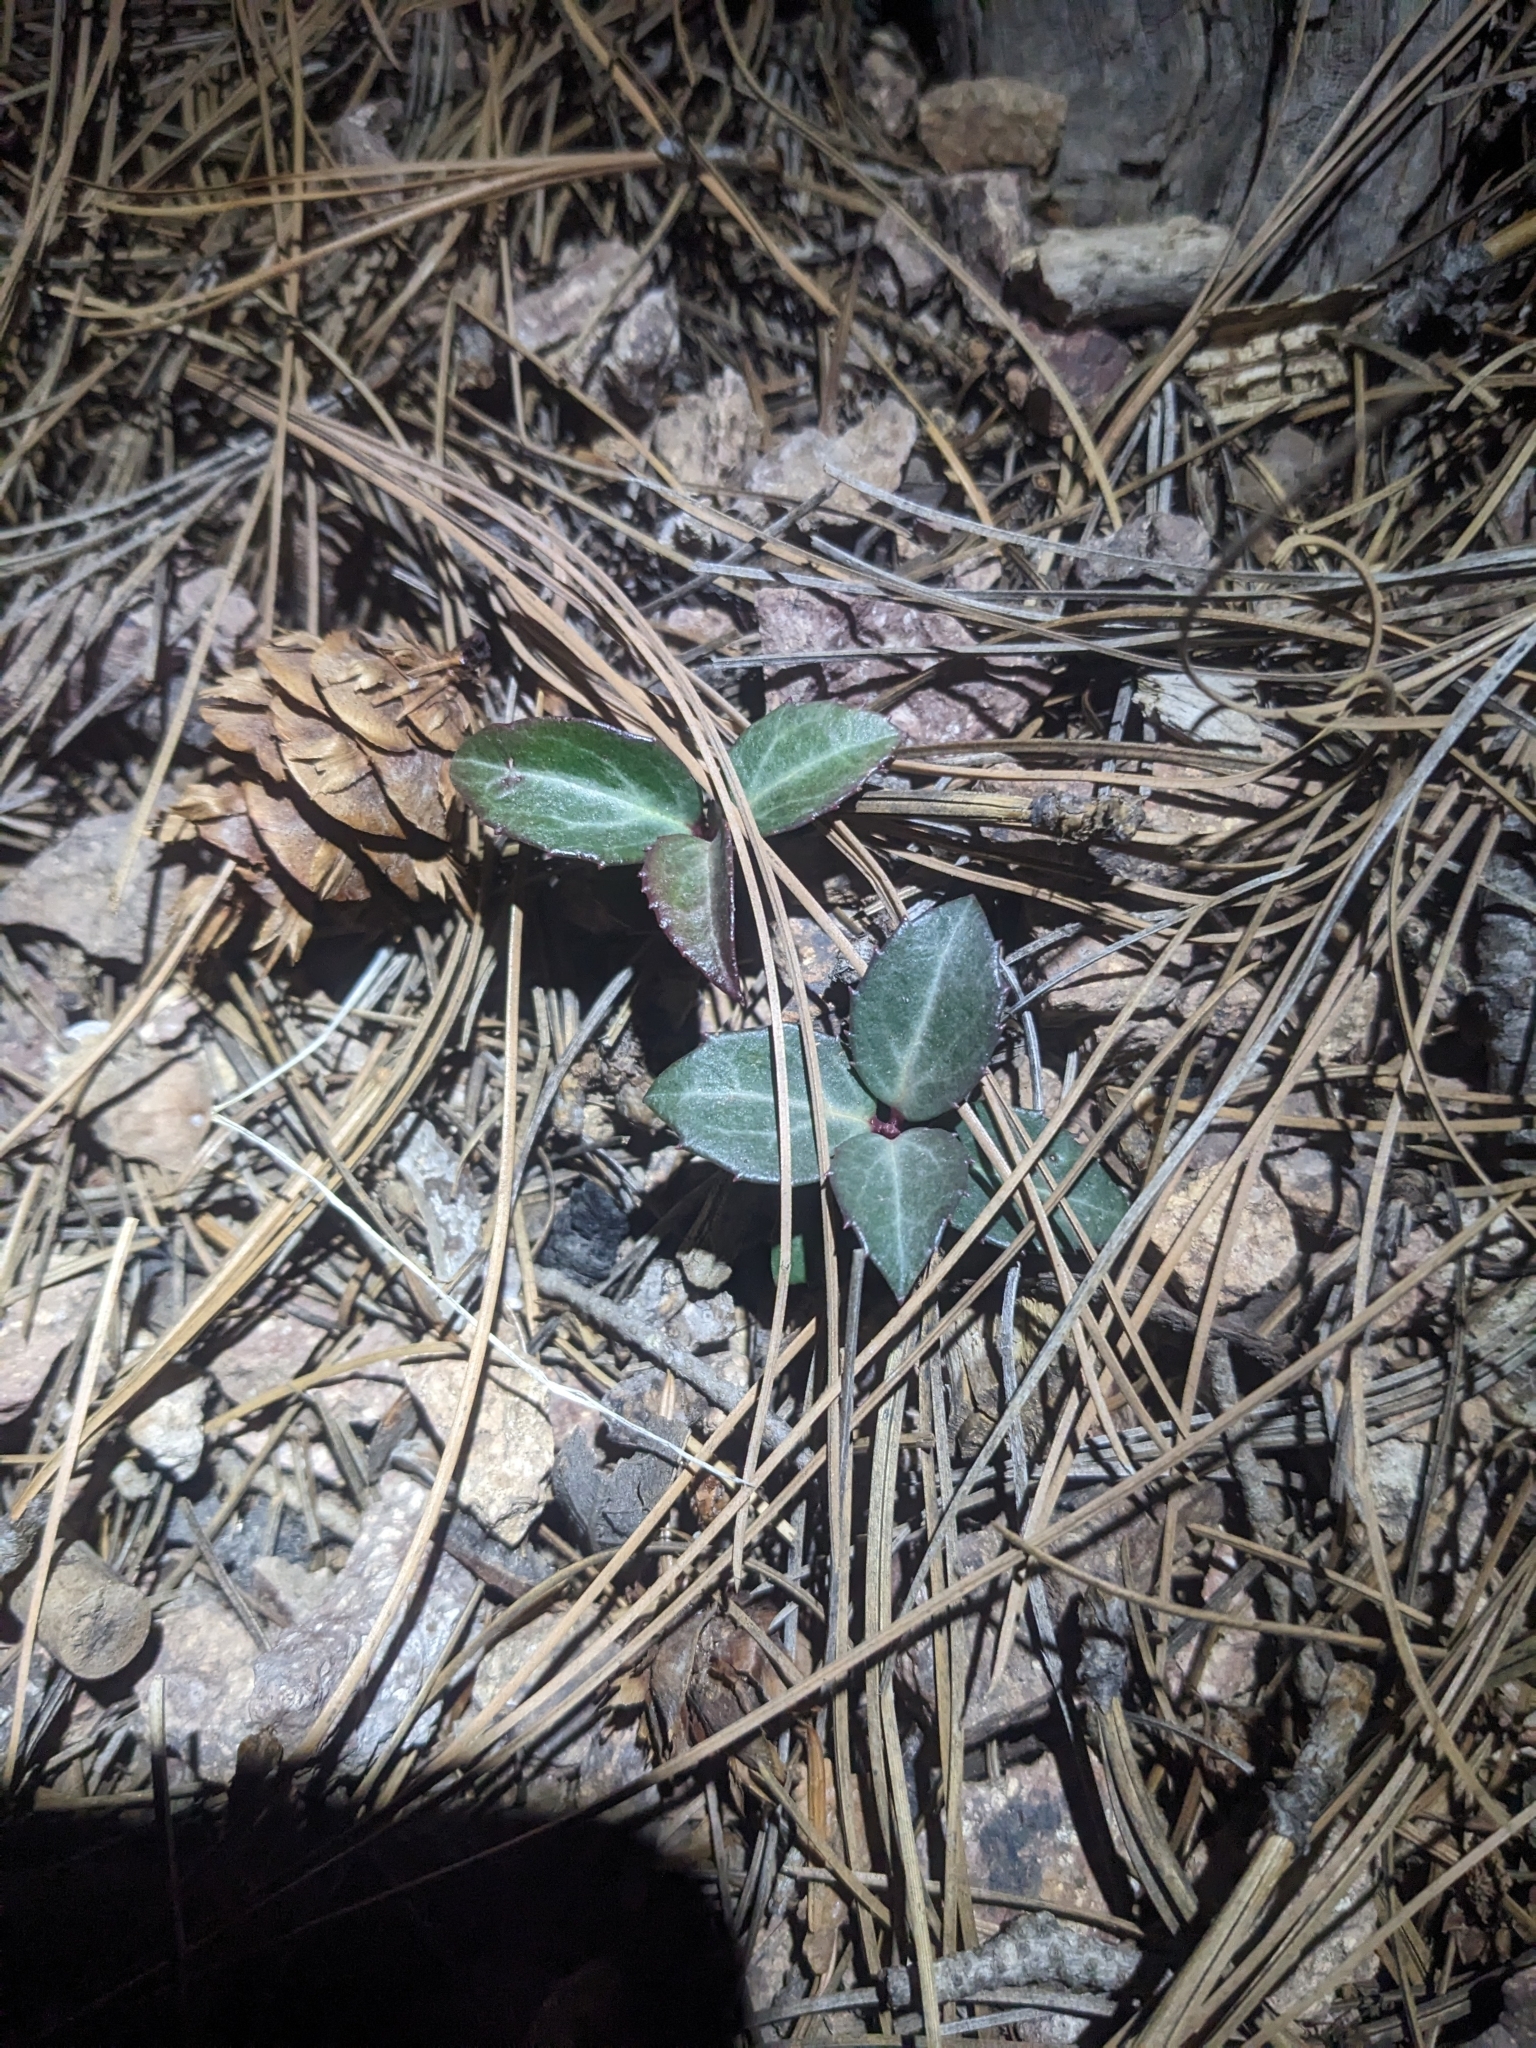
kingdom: Plantae
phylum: Tracheophyta
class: Magnoliopsida
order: Ericales
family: Ericaceae
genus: Chimaphila
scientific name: Chimaphila maculata
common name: Spotted pipsissewa
